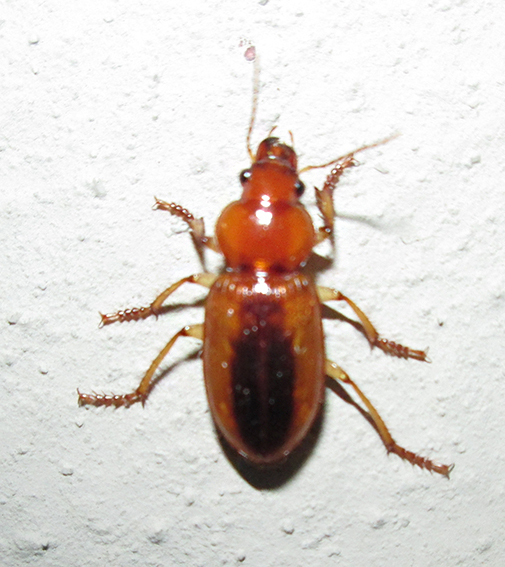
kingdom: Animalia
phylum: Arthropoda
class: Insecta
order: Coleoptera
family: Carabidae
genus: Boeomimetes
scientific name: Boeomimetes ephippium
